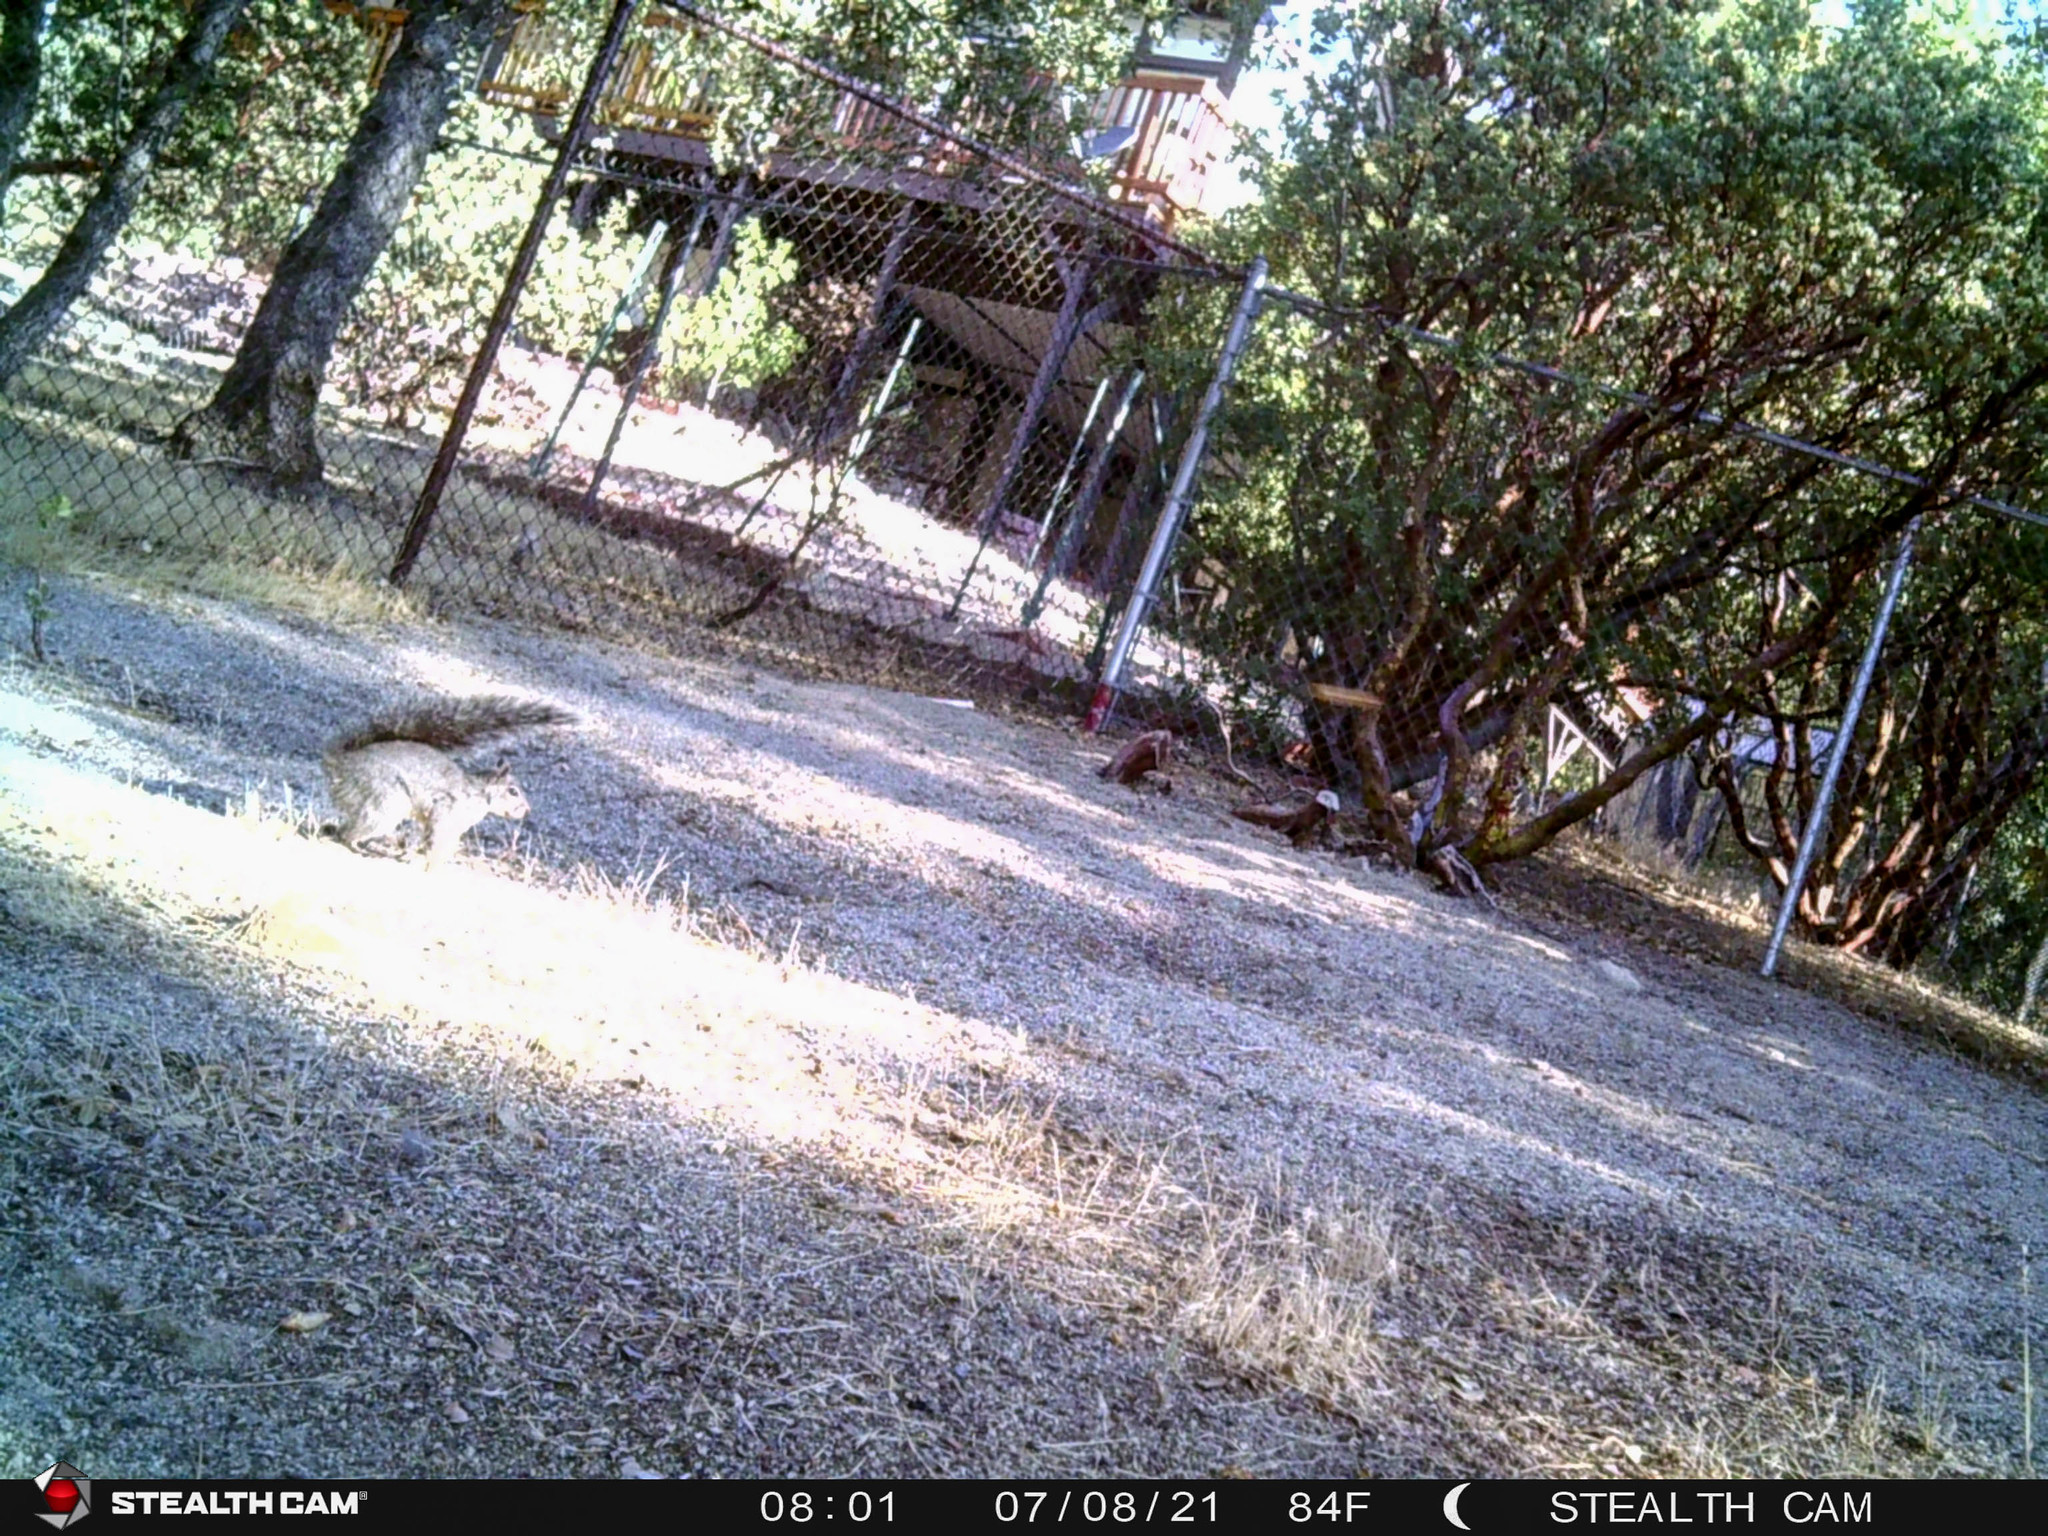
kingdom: Animalia
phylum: Chordata
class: Mammalia
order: Rodentia
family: Sciuridae
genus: Sciurus
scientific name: Sciurus griseus
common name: Western gray squirrel
